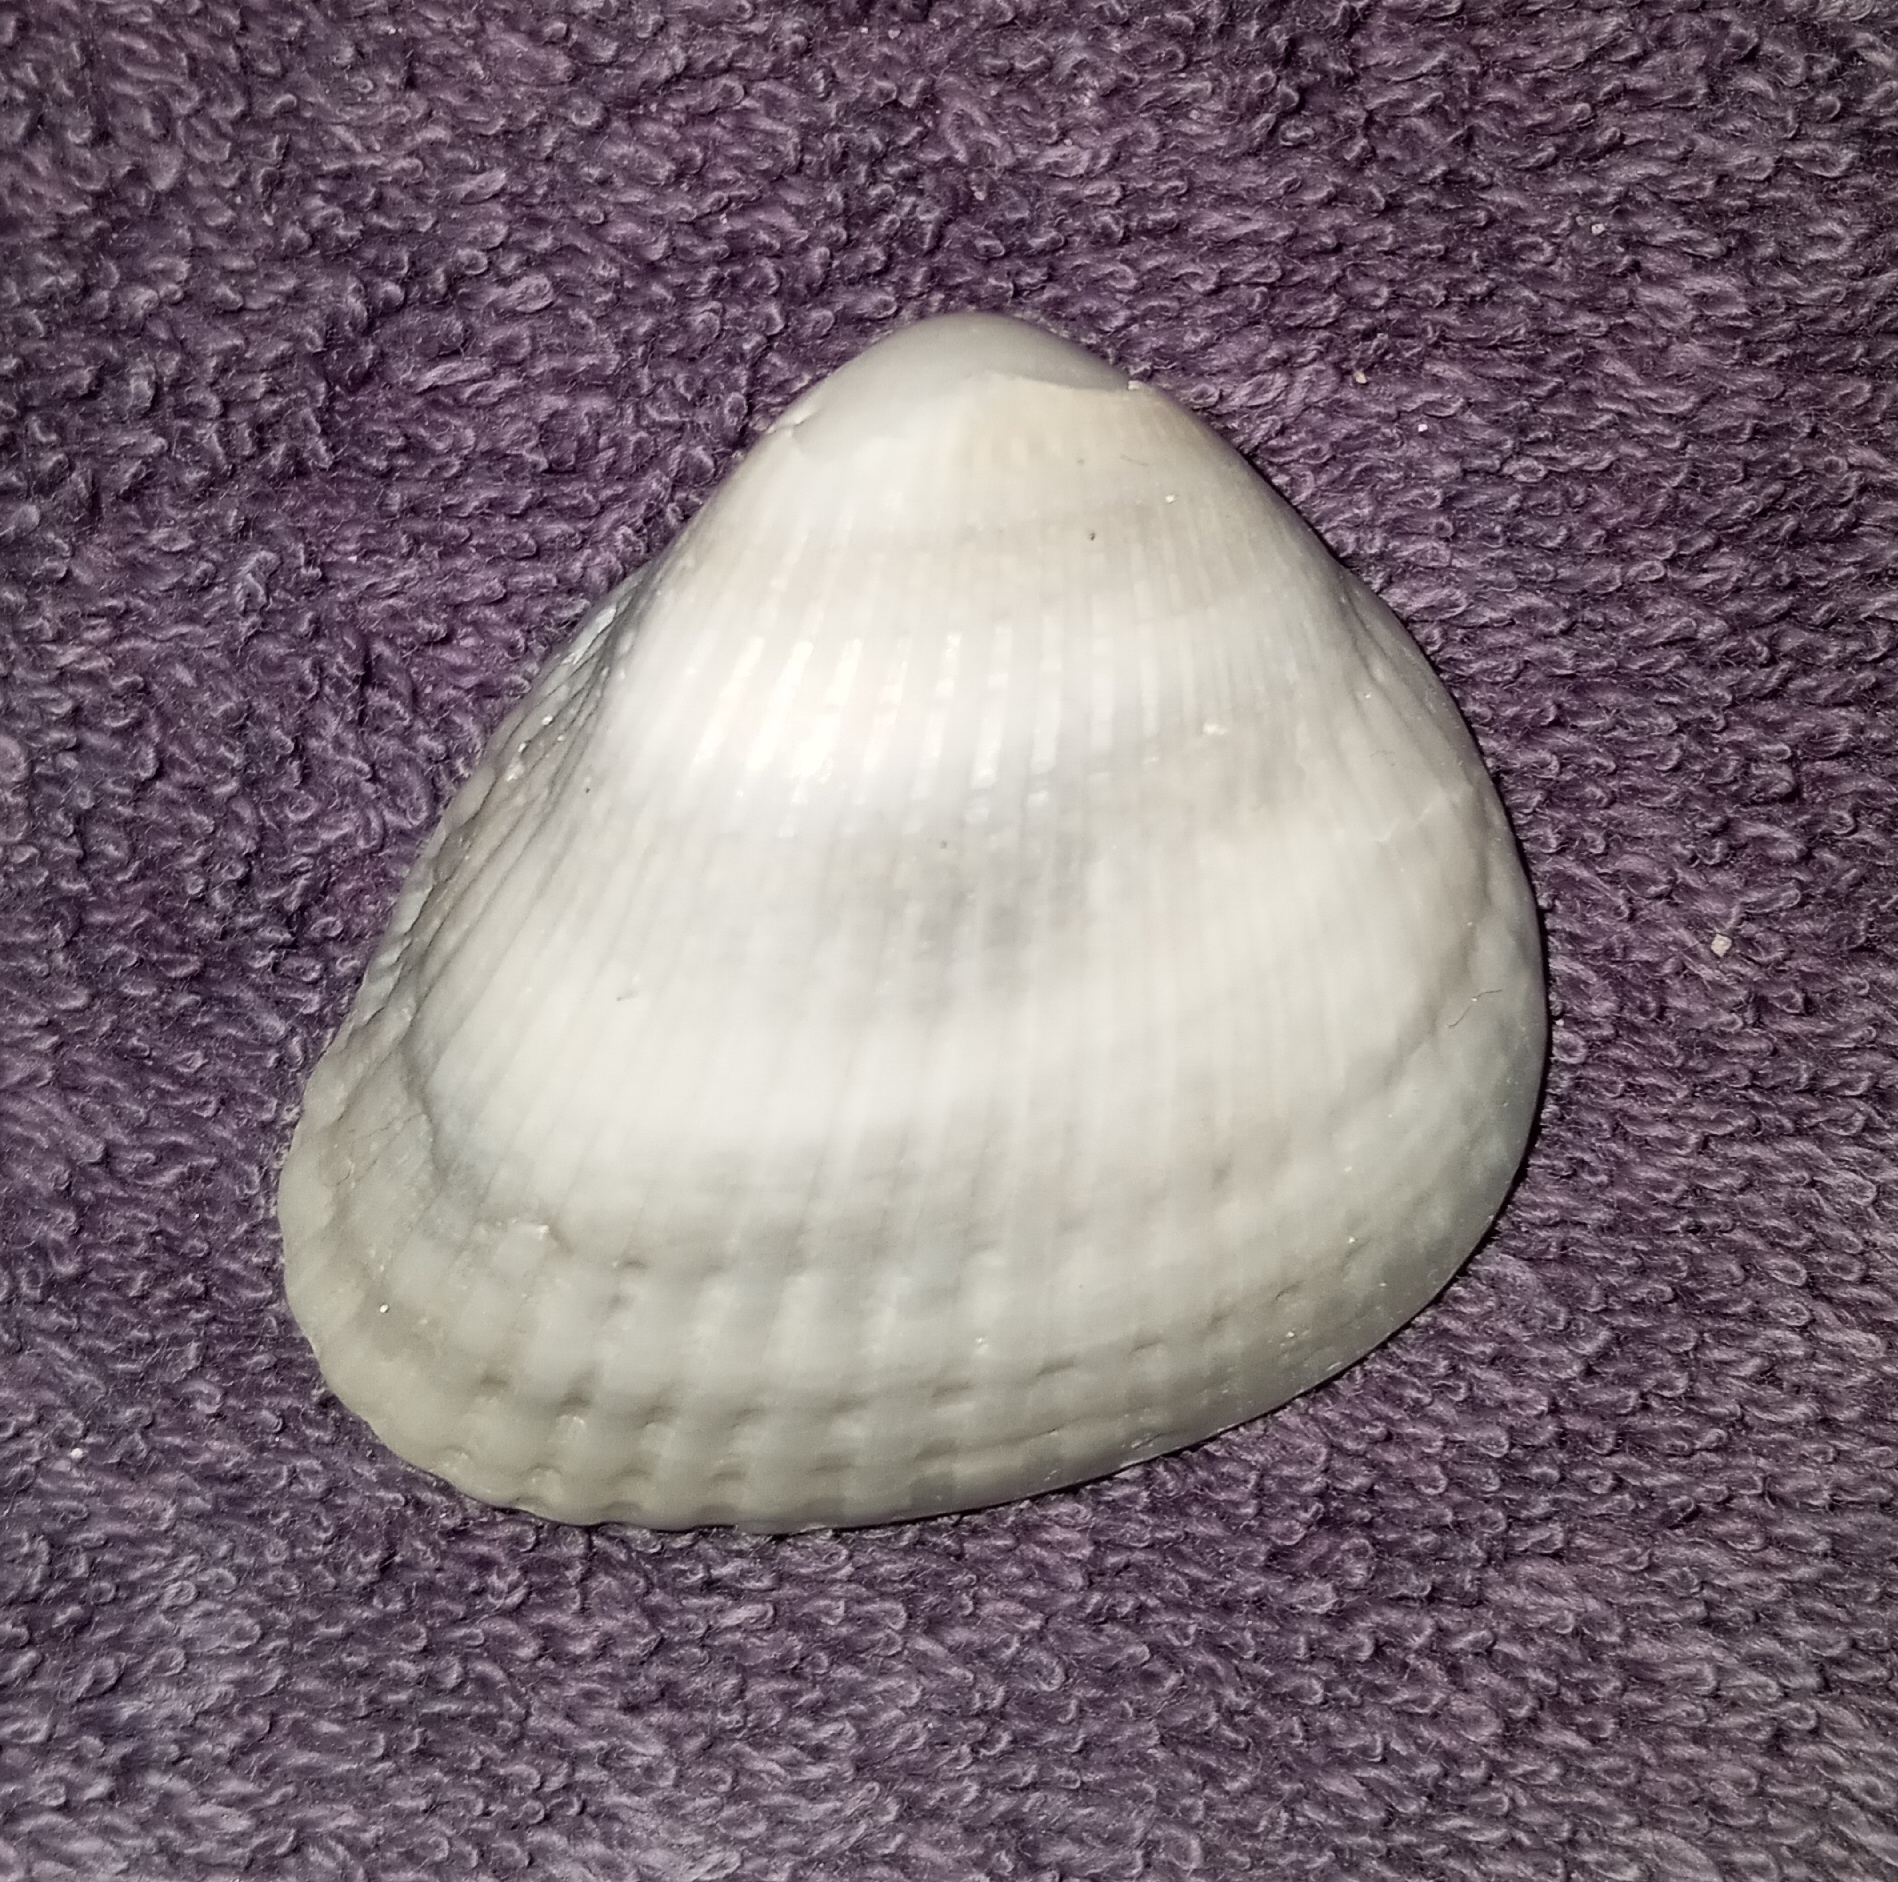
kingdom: Animalia
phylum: Mollusca
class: Bivalvia
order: Arcida
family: Noetiidae
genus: Noetia
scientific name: Noetia ponderosa
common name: Ponderous ark
